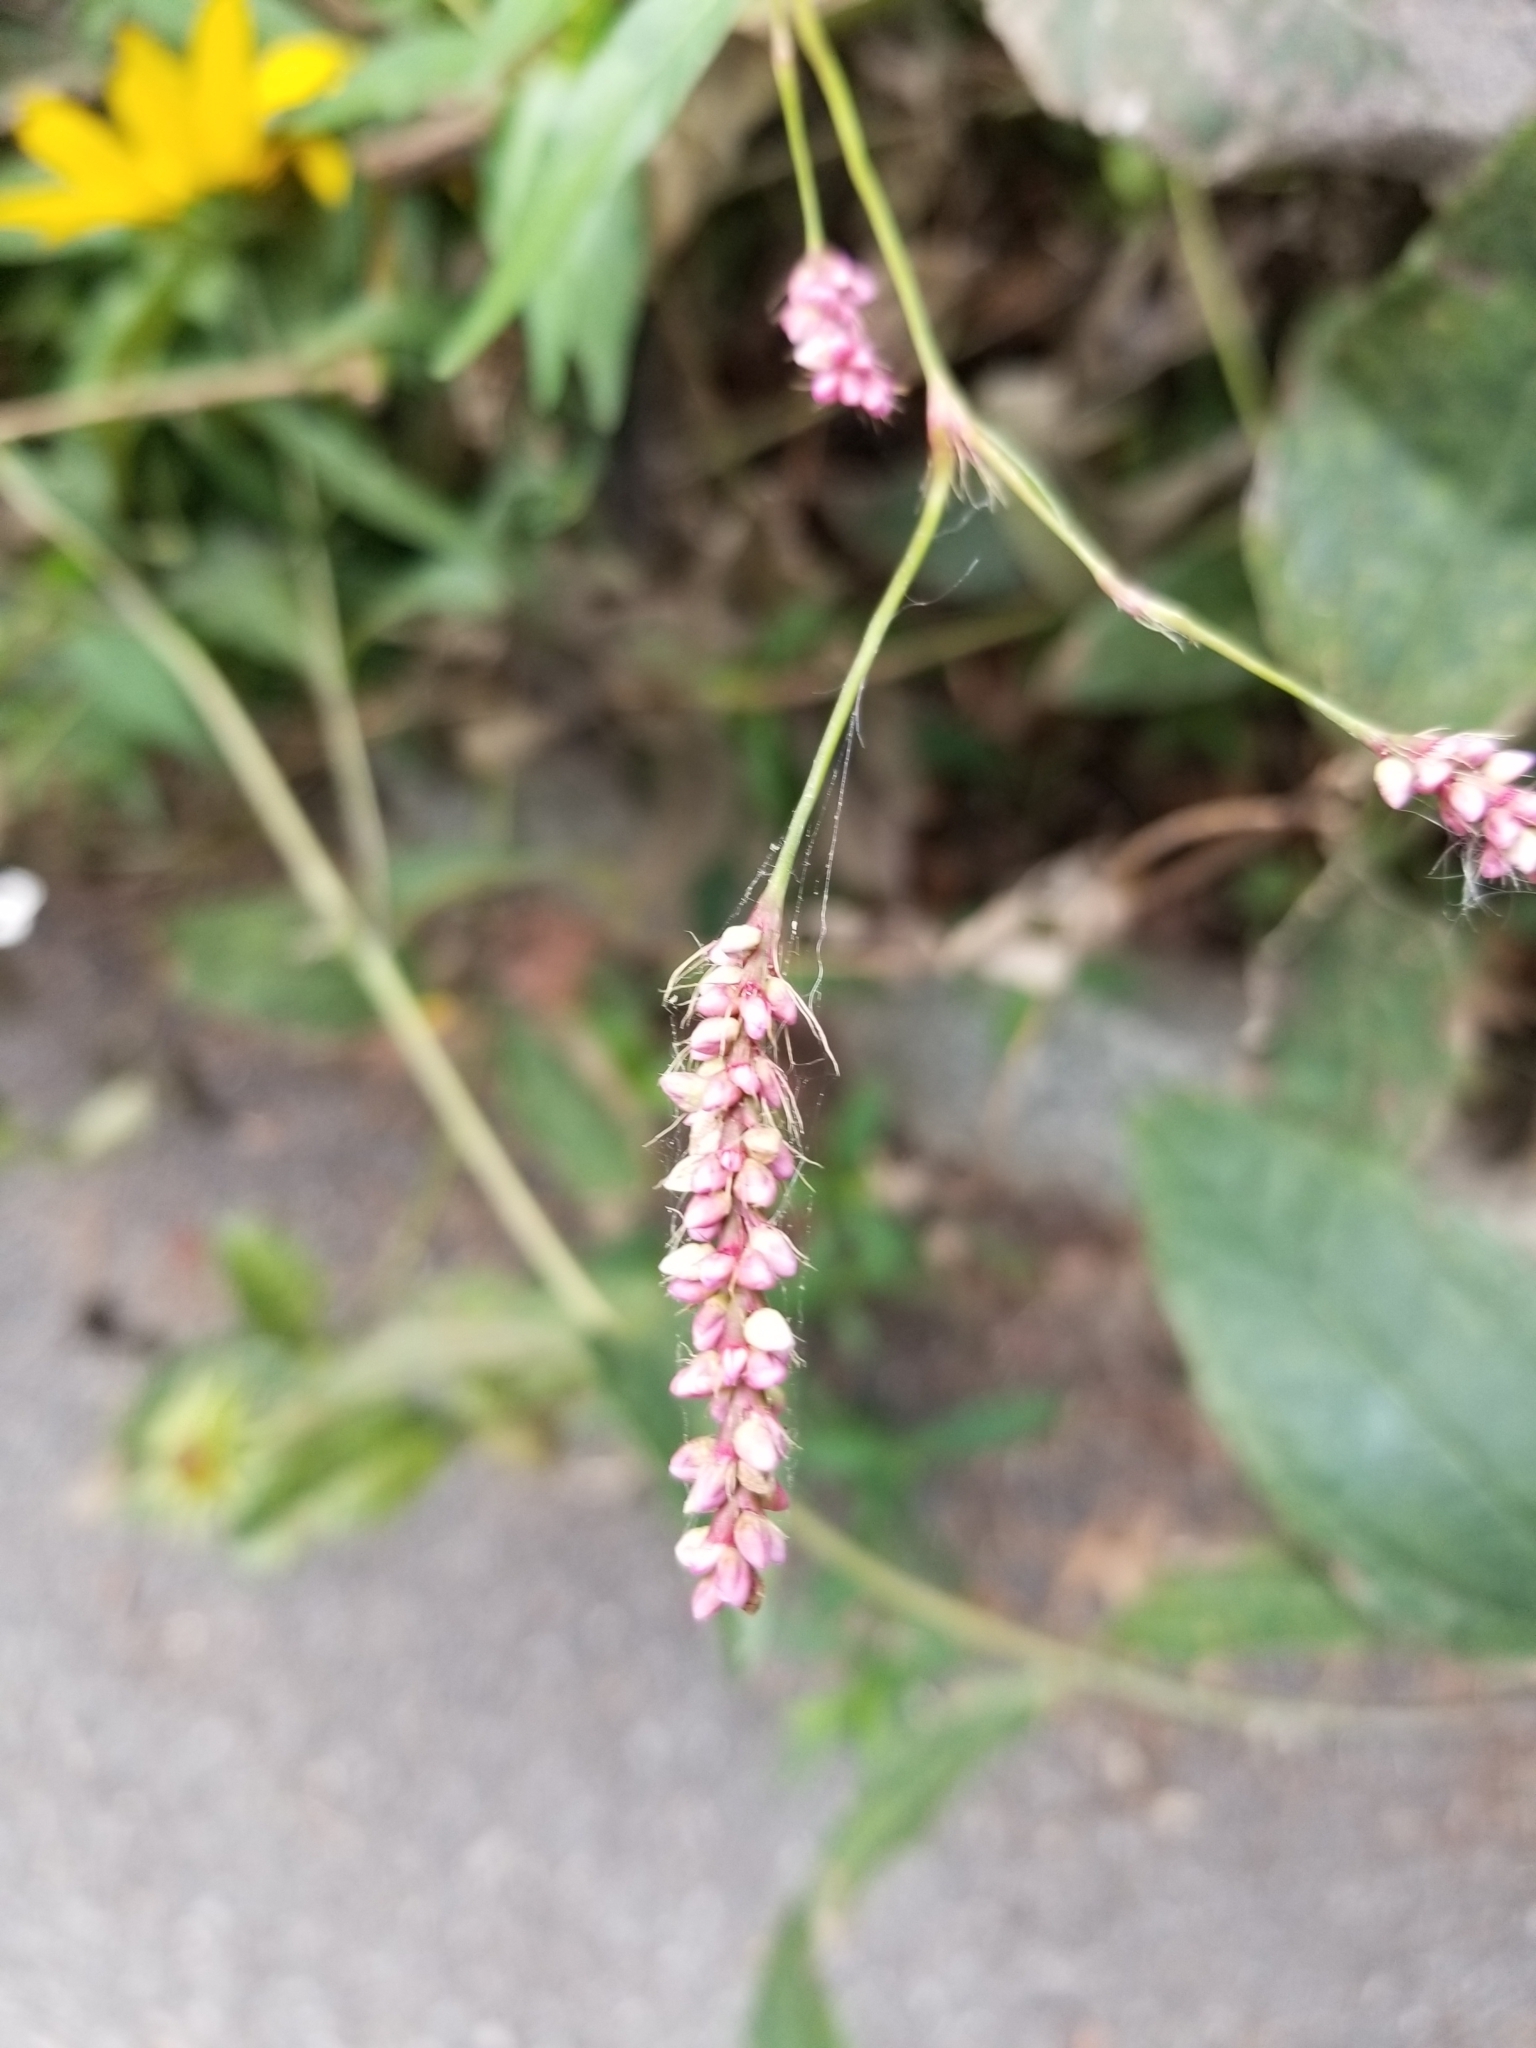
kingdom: Plantae
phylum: Tracheophyta
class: Magnoliopsida
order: Caryophyllales
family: Polygonaceae
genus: Persicaria
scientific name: Persicaria longiseta
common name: Bristly lady's-thumb
